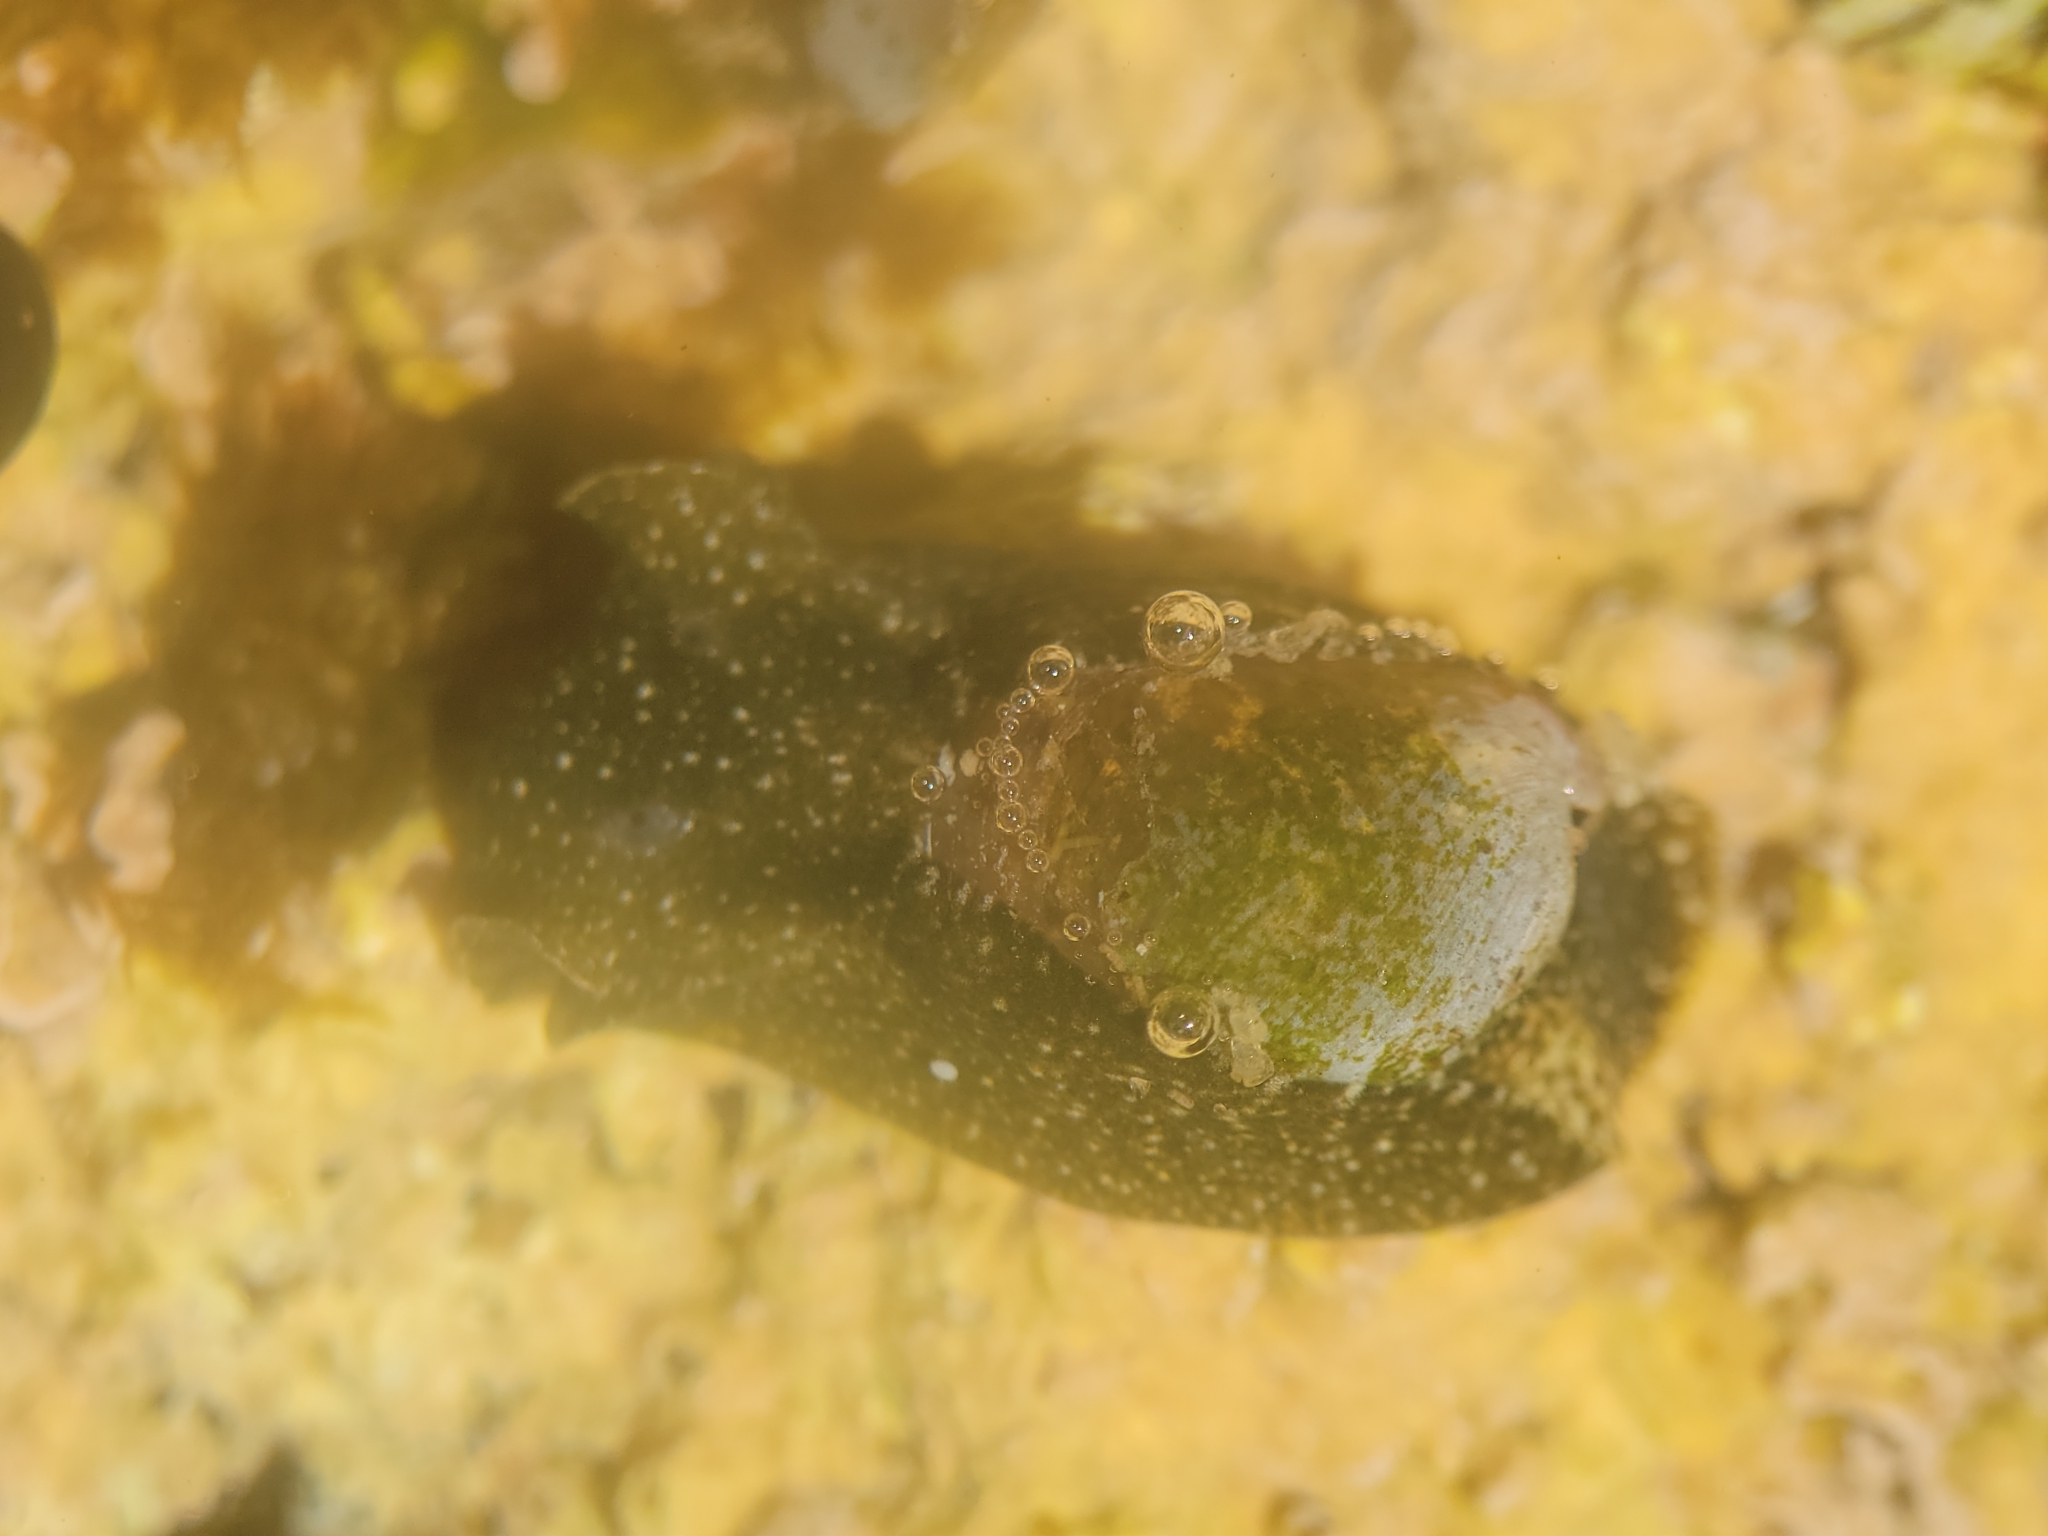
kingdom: Animalia
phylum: Mollusca
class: Gastropoda
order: Cephalaspidea
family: Haminoeidae
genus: Haminoea
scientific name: Haminoea virescens
